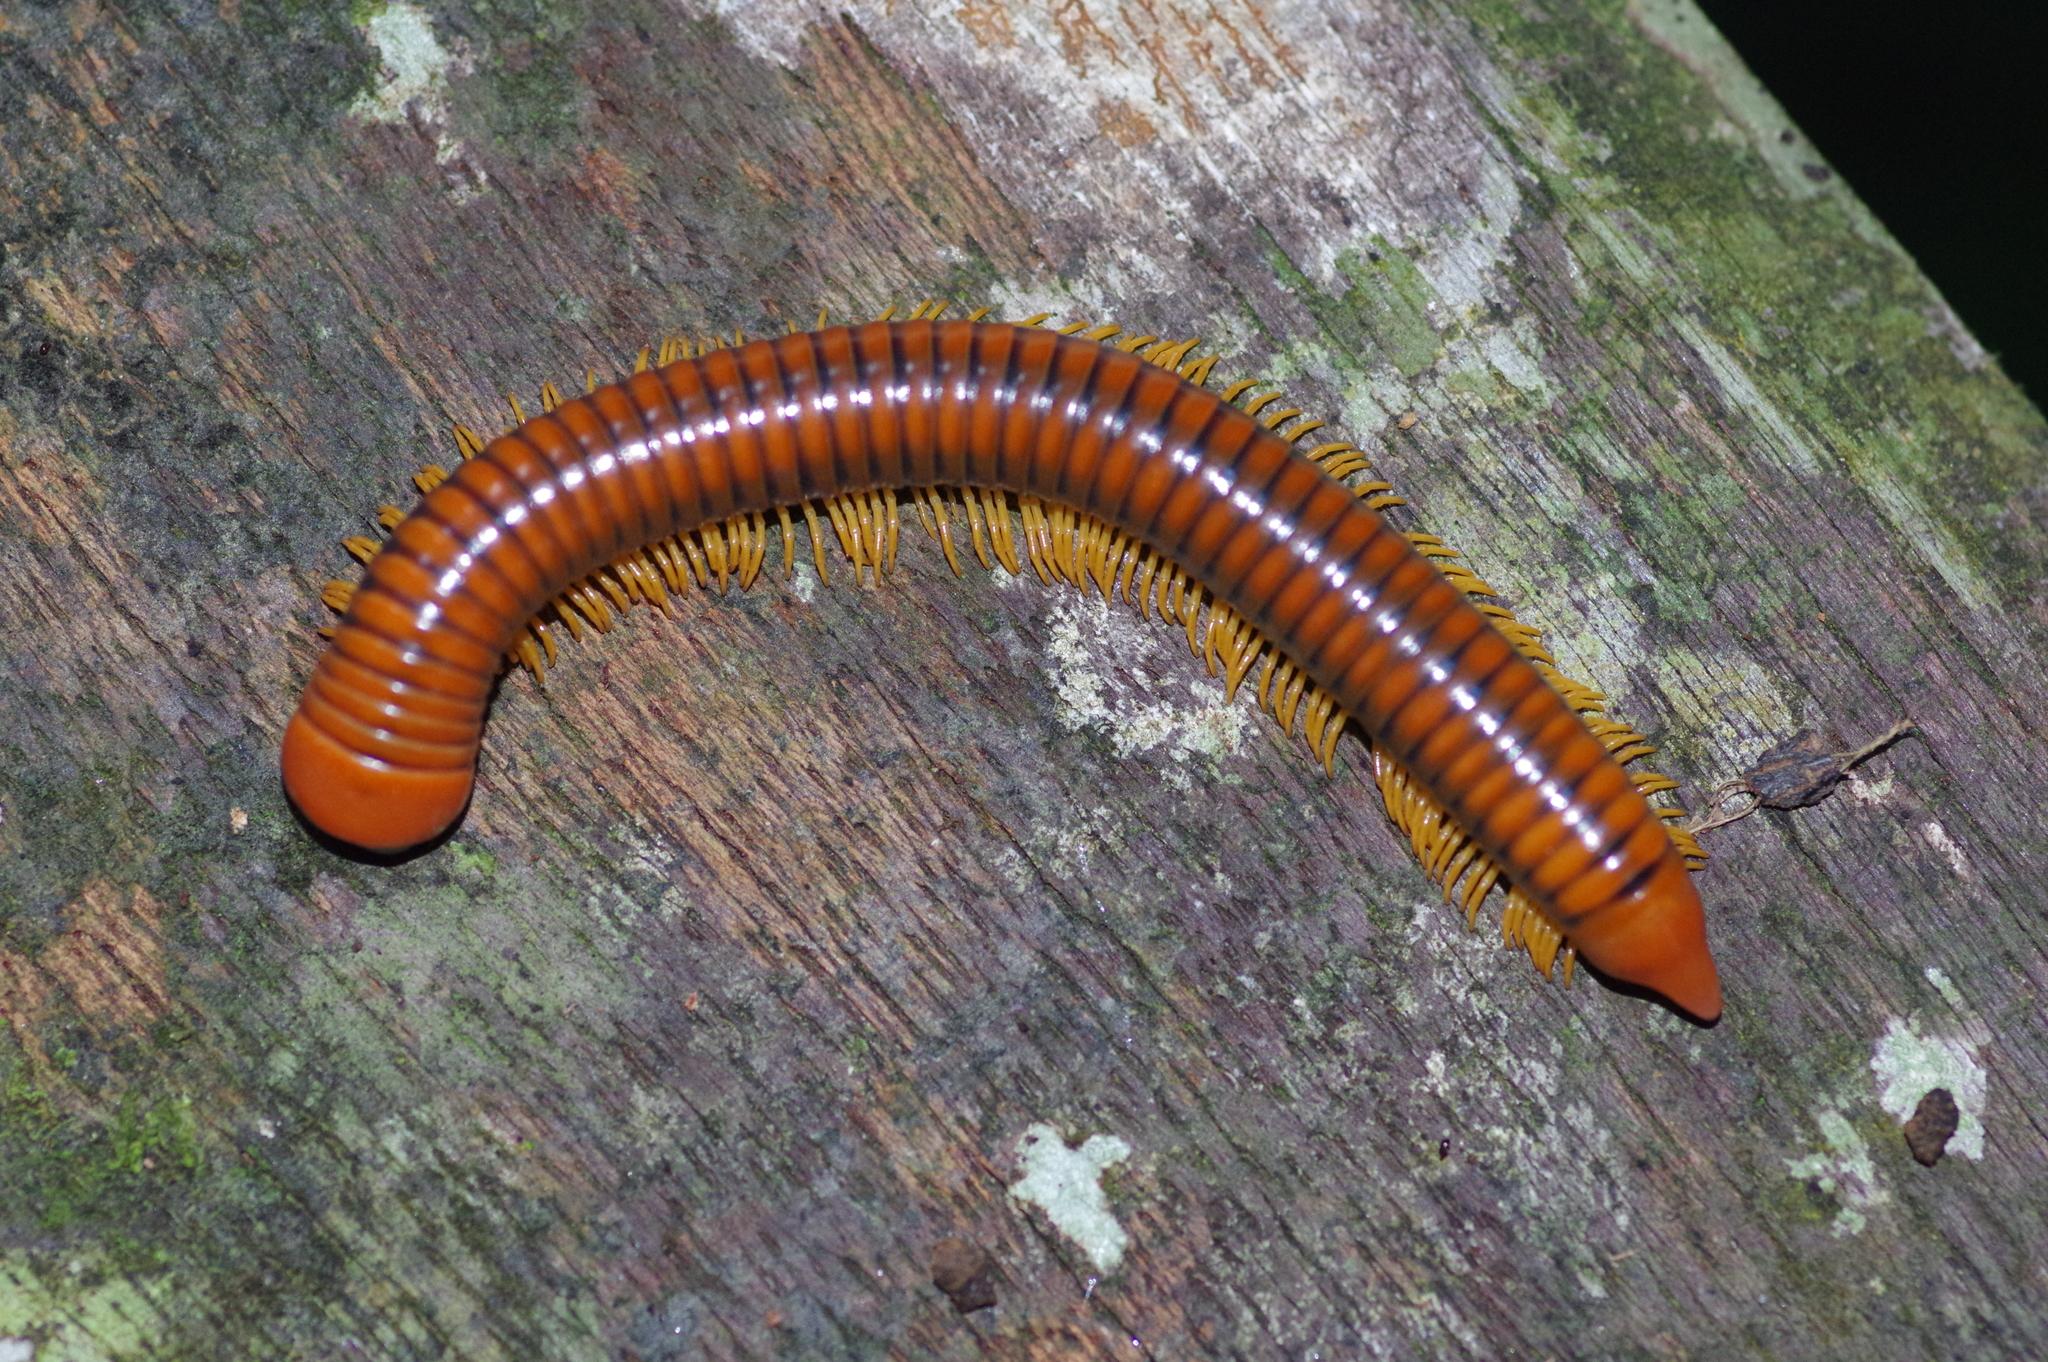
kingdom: Animalia
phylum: Arthropoda
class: Diplopoda
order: Spirobolida
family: Pachybolidae
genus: Trigoniulus
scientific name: Trigoniulus corallinus
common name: Millipede
